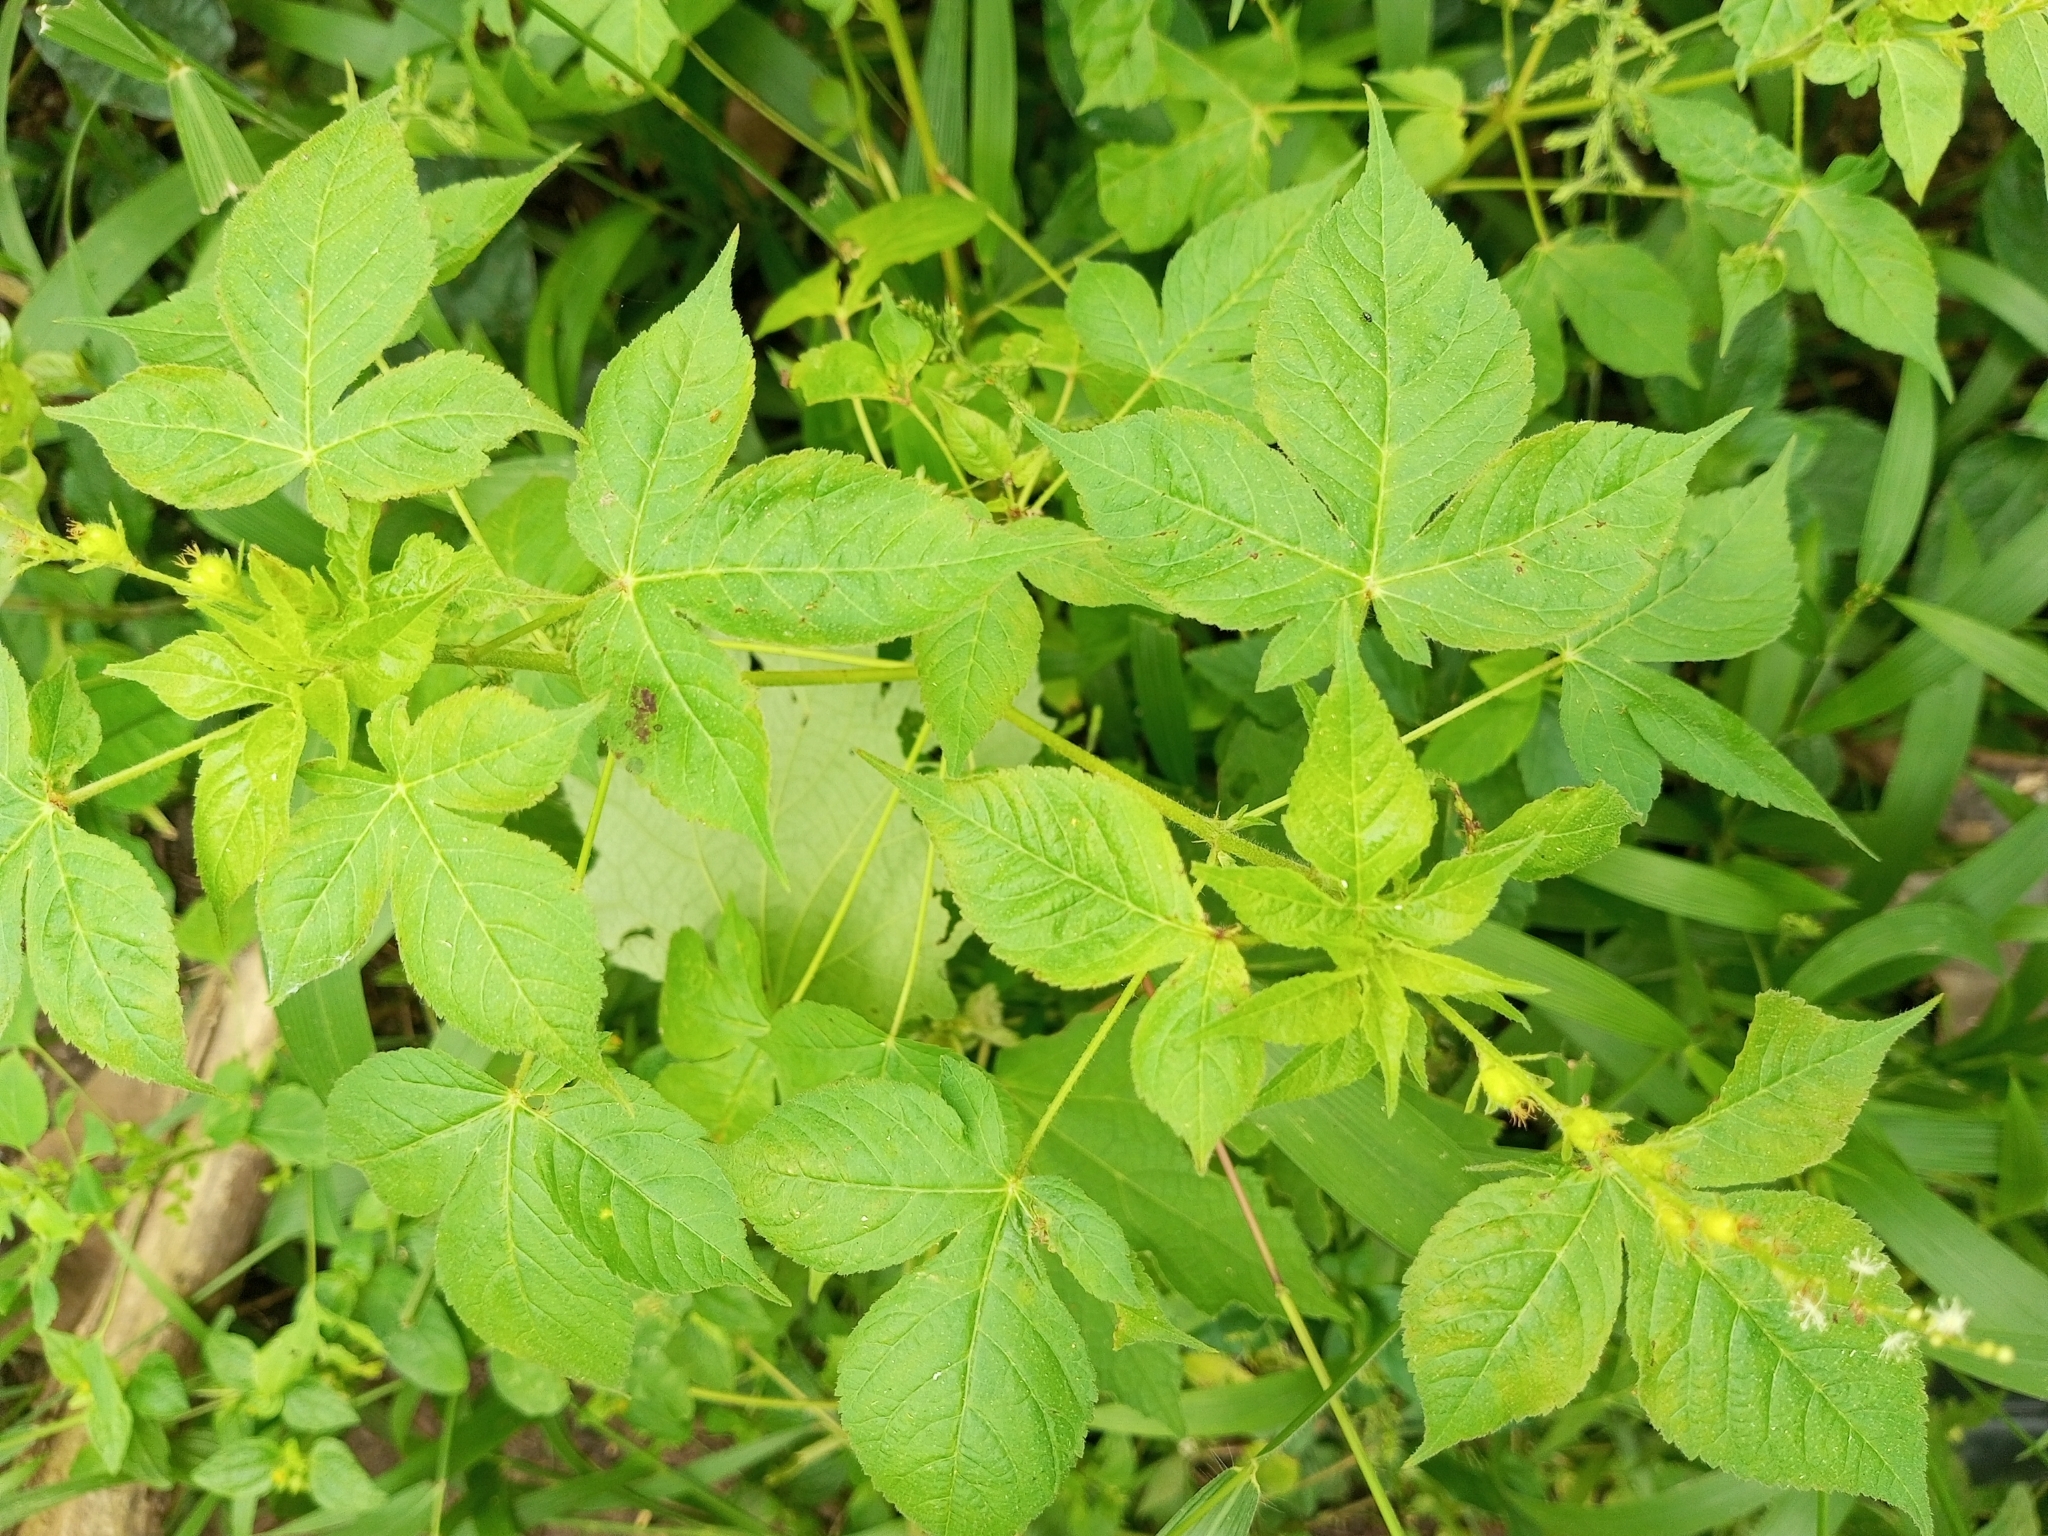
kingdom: Plantae
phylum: Tracheophyta
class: Magnoliopsida
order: Malpighiales
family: Euphorbiaceae
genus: Astraea
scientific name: Astraea lobata
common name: Lobed croton
